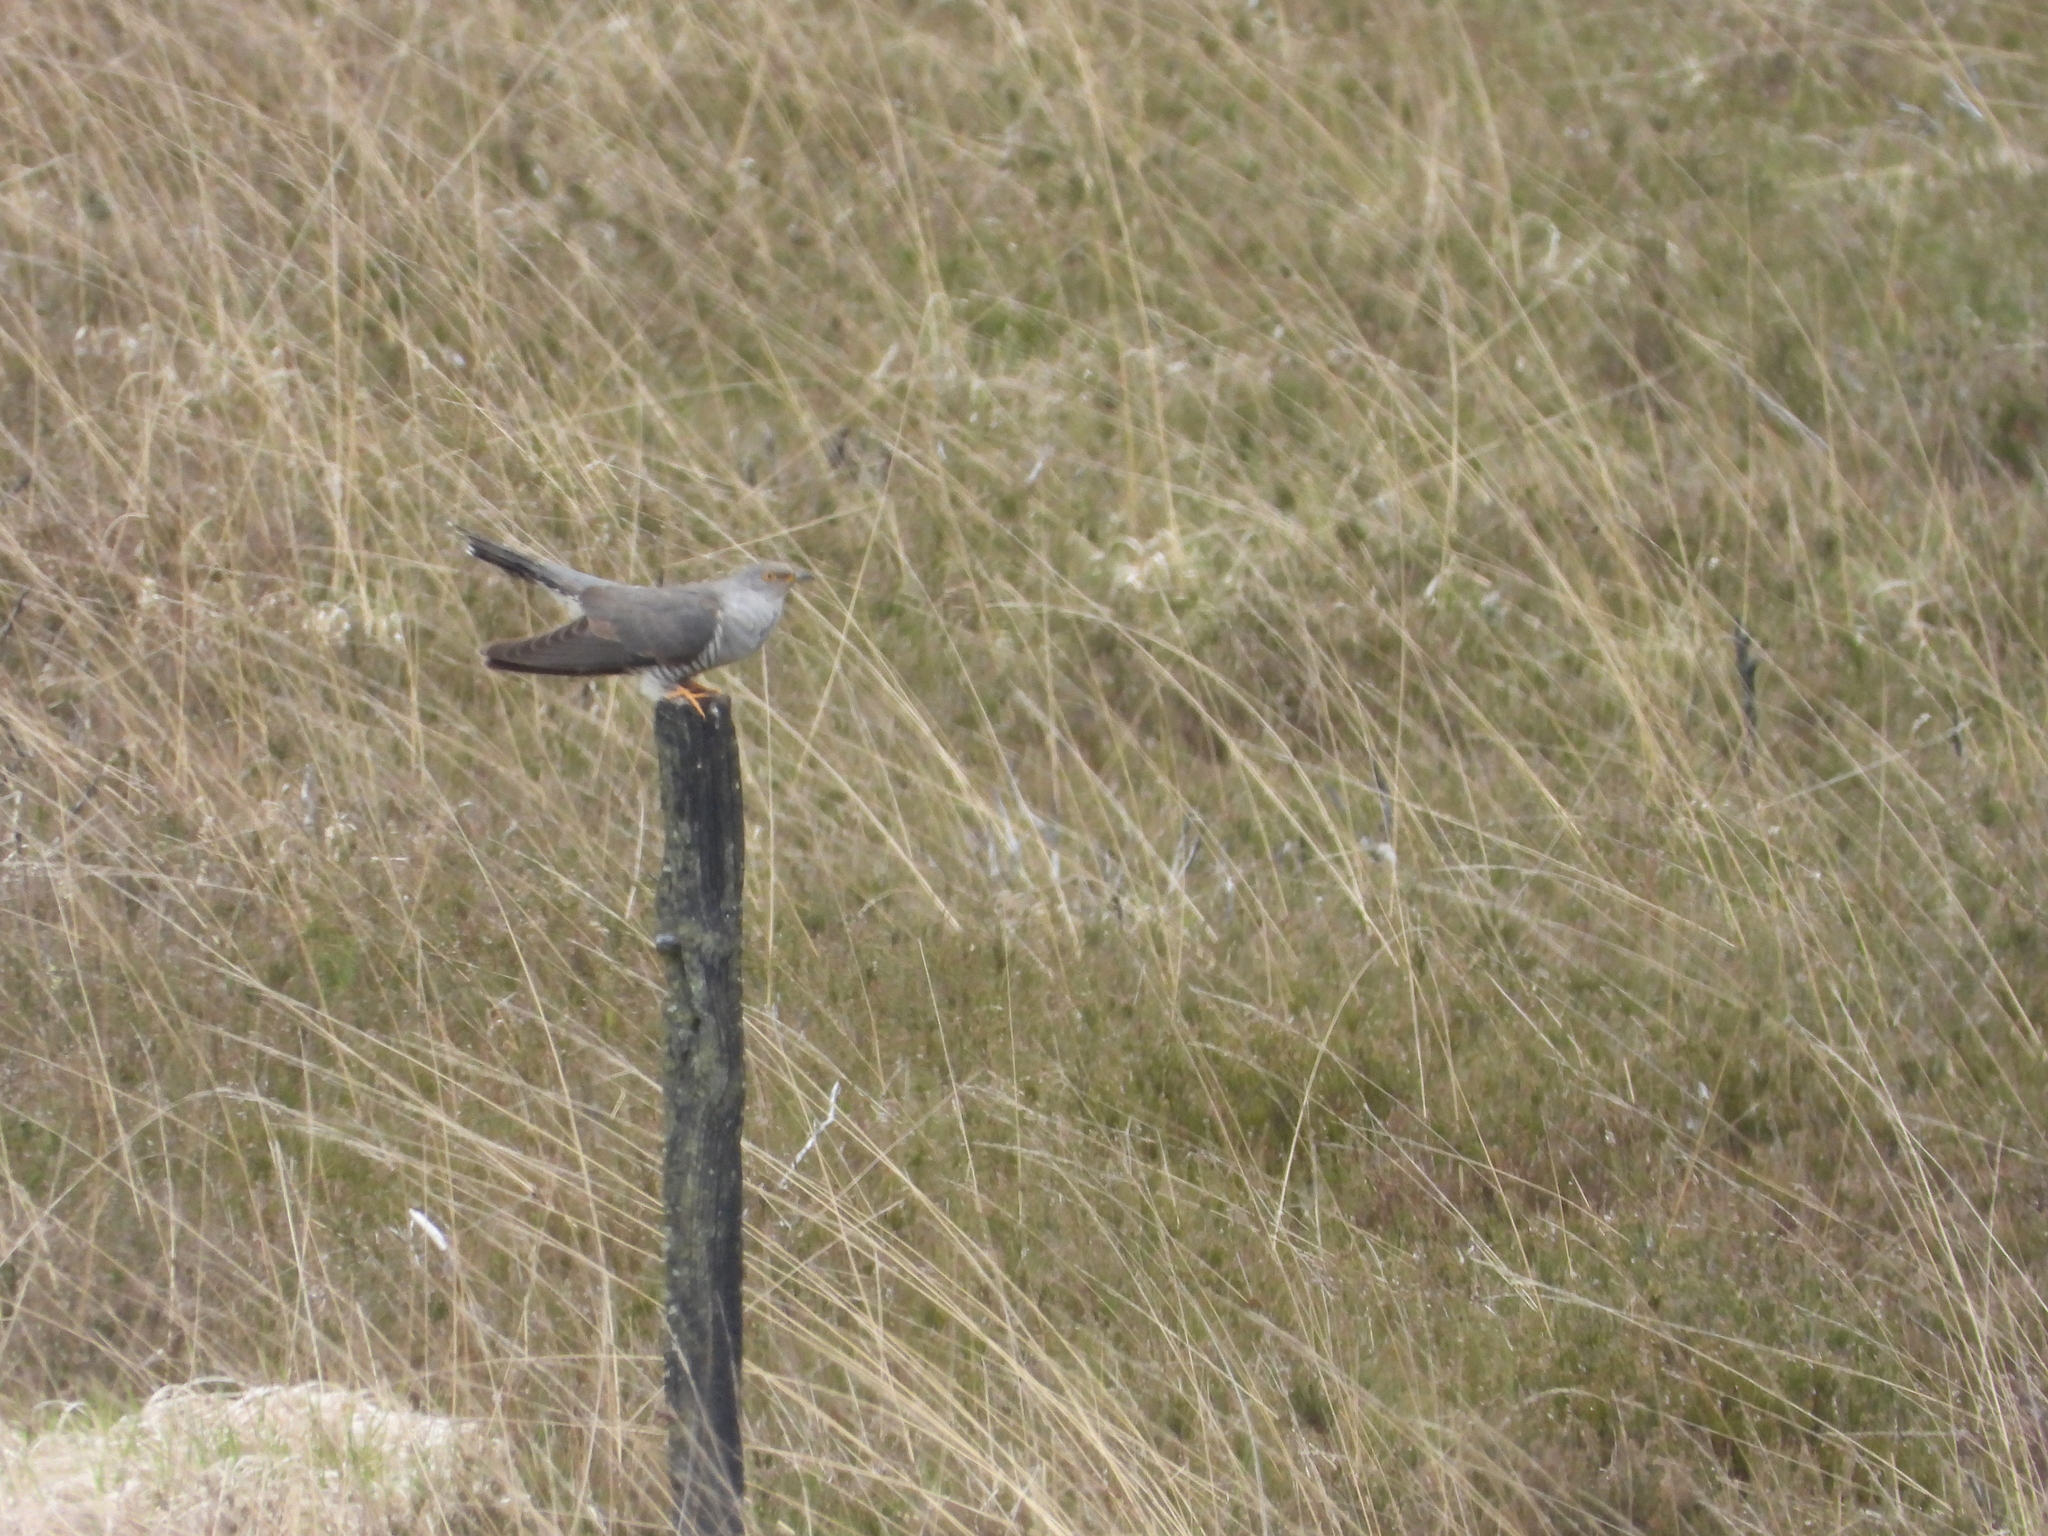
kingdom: Animalia
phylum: Chordata
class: Aves
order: Cuculiformes
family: Cuculidae
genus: Cuculus
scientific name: Cuculus canorus
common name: Common cuckoo
